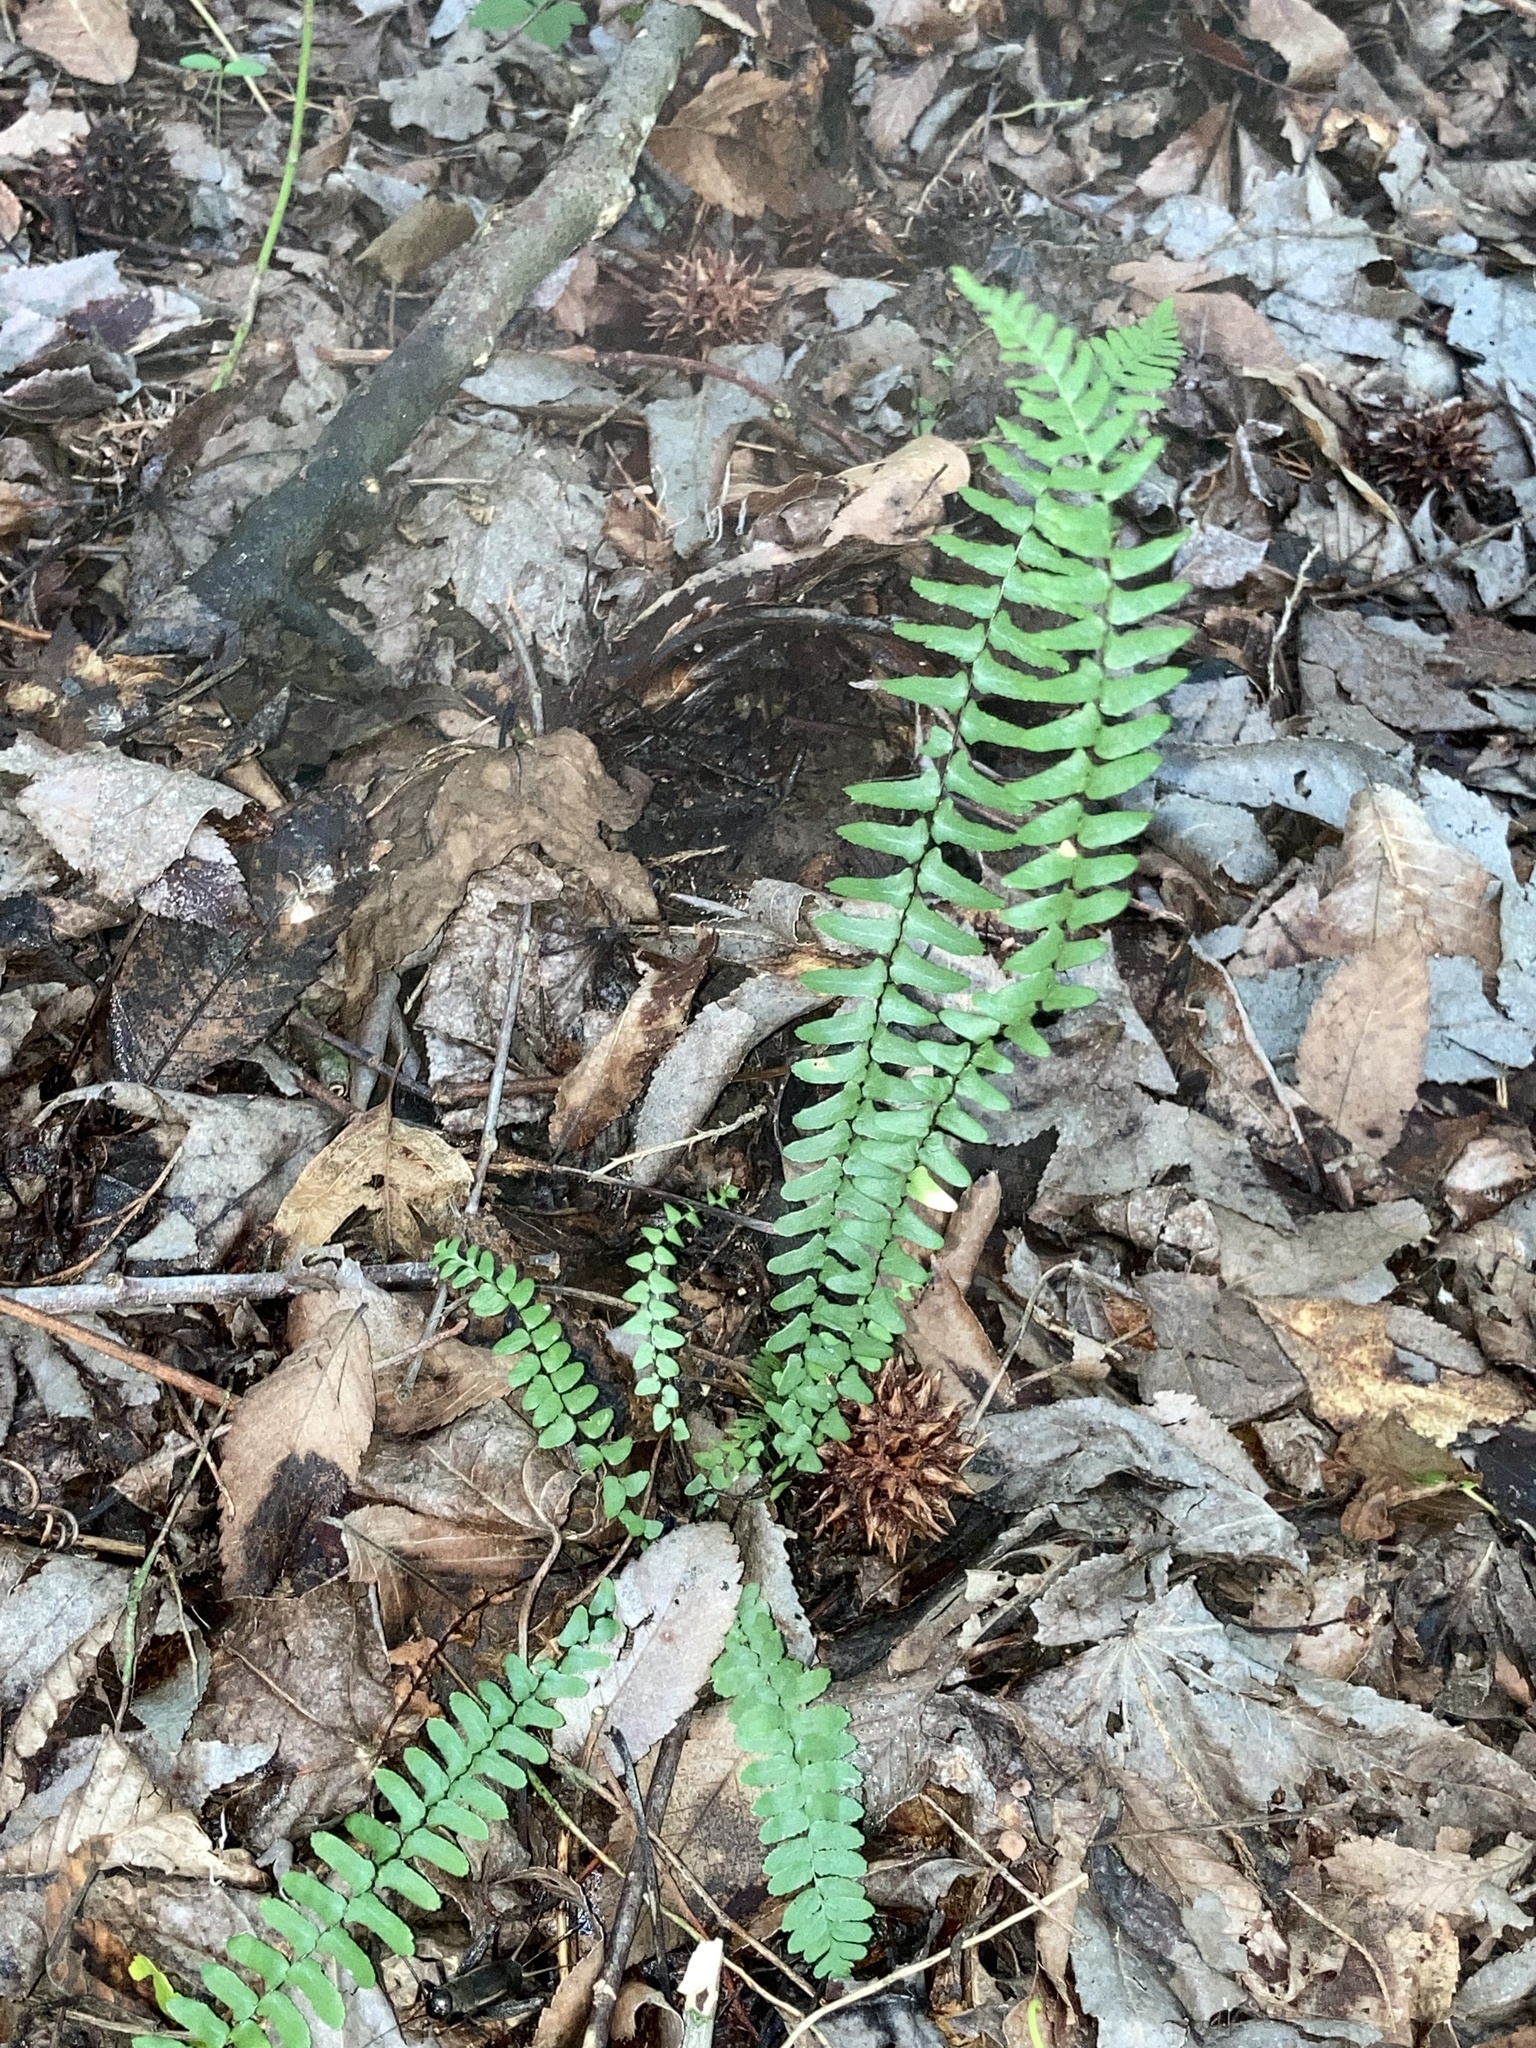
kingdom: Plantae
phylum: Tracheophyta
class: Polypodiopsida
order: Polypodiales
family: Aspleniaceae
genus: Asplenium
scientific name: Asplenium platyneuron
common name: Ebony spleenwort
